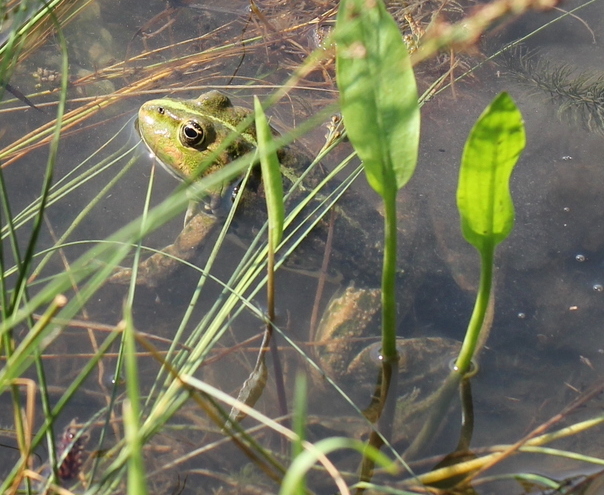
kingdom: Animalia
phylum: Chordata
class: Amphibia
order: Anura
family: Ranidae
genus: Pelophylax
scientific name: Pelophylax ridibundus
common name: Marsh frog
